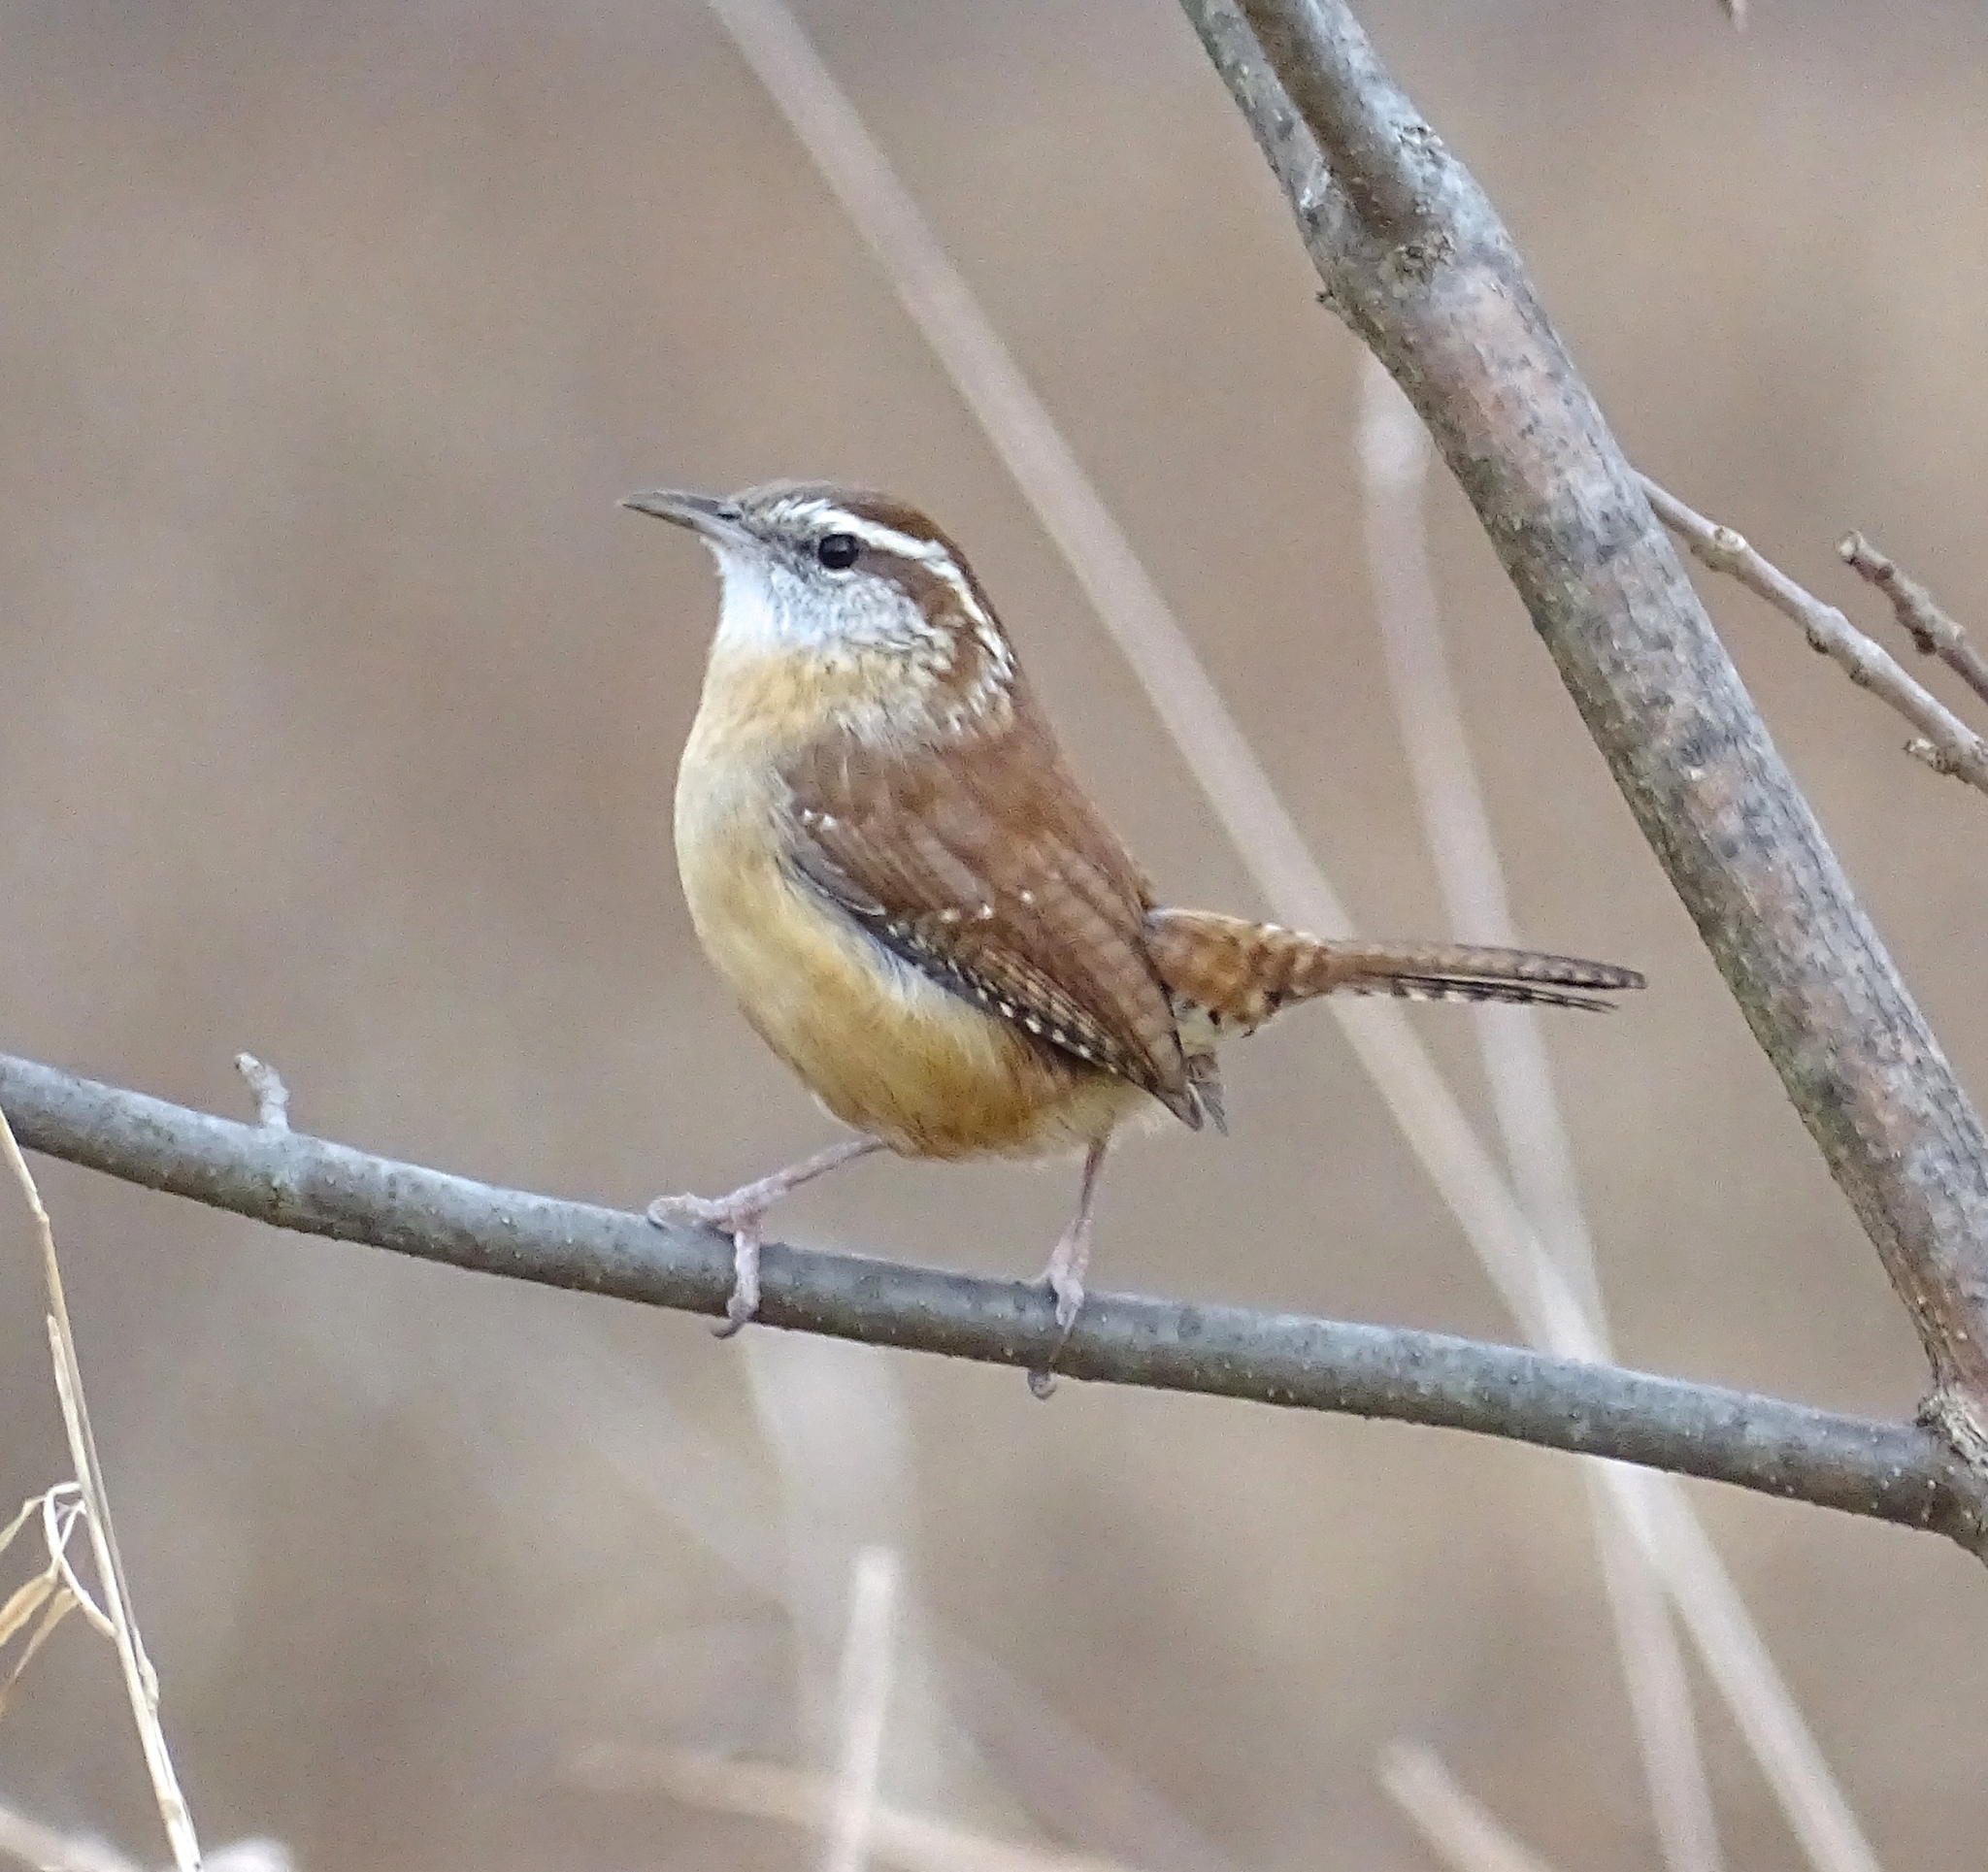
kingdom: Animalia
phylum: Chordata
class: Aves
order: Passeriformes
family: Troglodytidae
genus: Thryothorus
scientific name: Thryothorus ludovicianus
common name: Carolina wren
